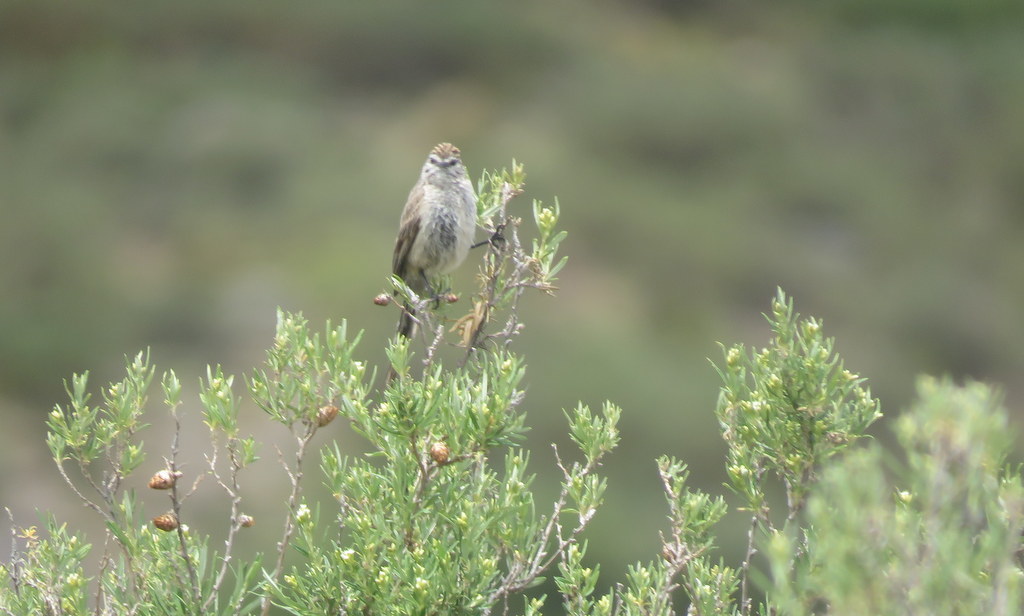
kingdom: Animalia
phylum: Chordata
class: Aves
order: Passeriformes
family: Furnariidae
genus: Leptasthenura
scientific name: Leptasthenura aegithaloides
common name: Plain-mantled tit-spinetail
